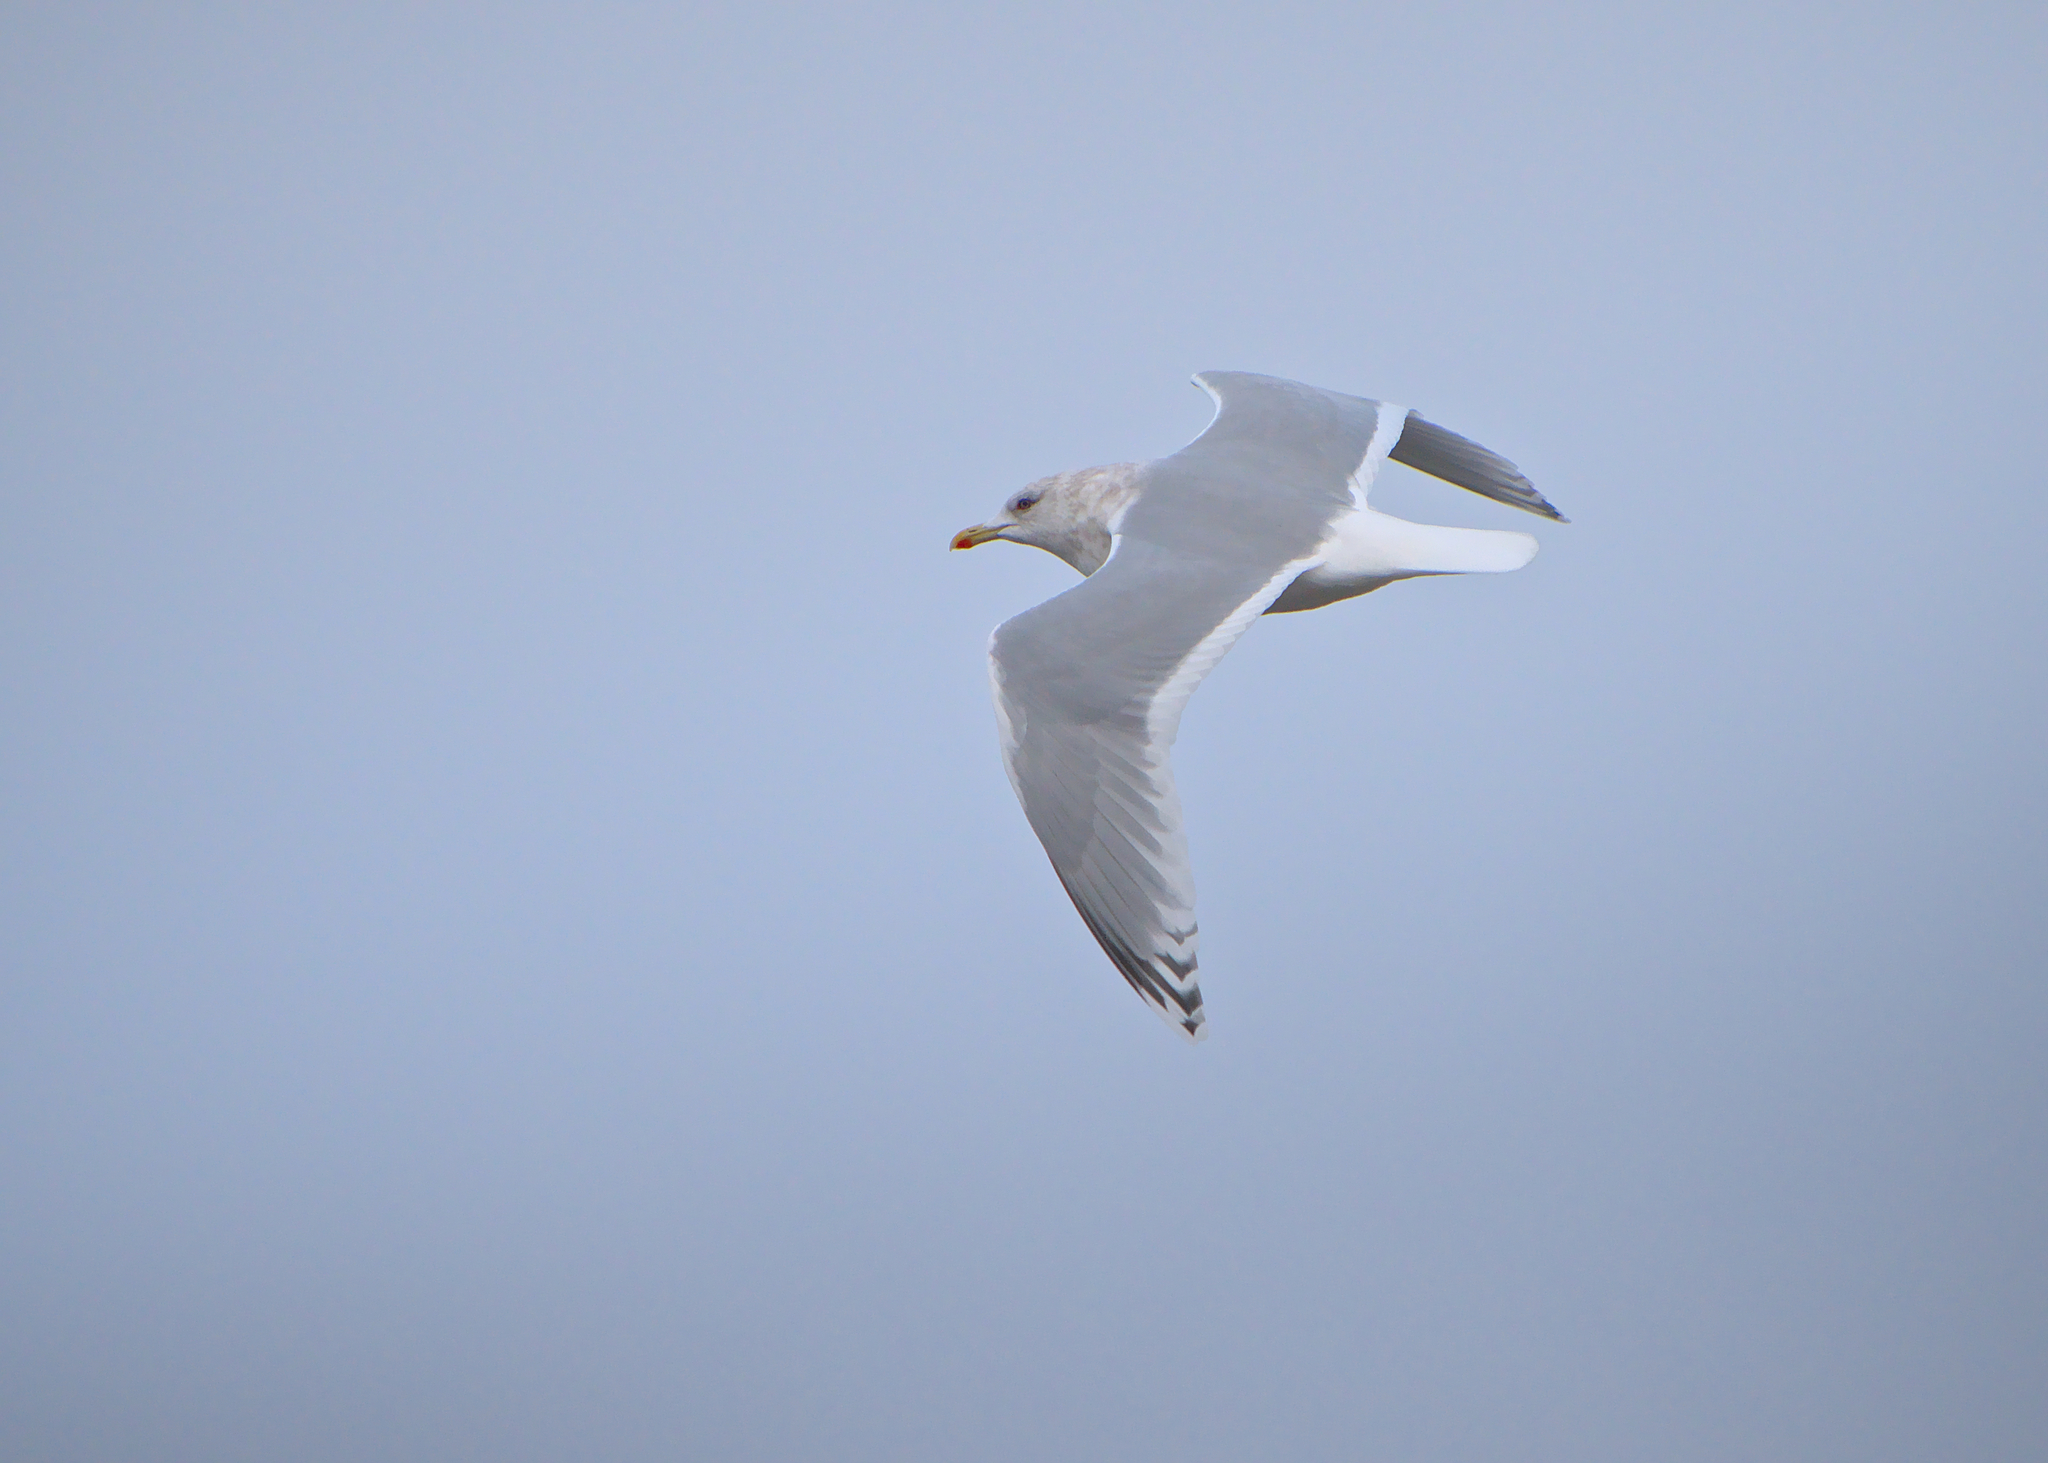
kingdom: Animalia
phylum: Chordata
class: Aves
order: Charadriiformes
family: Laridae
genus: Larus
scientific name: Larus glaucoides
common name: Iceland gull
